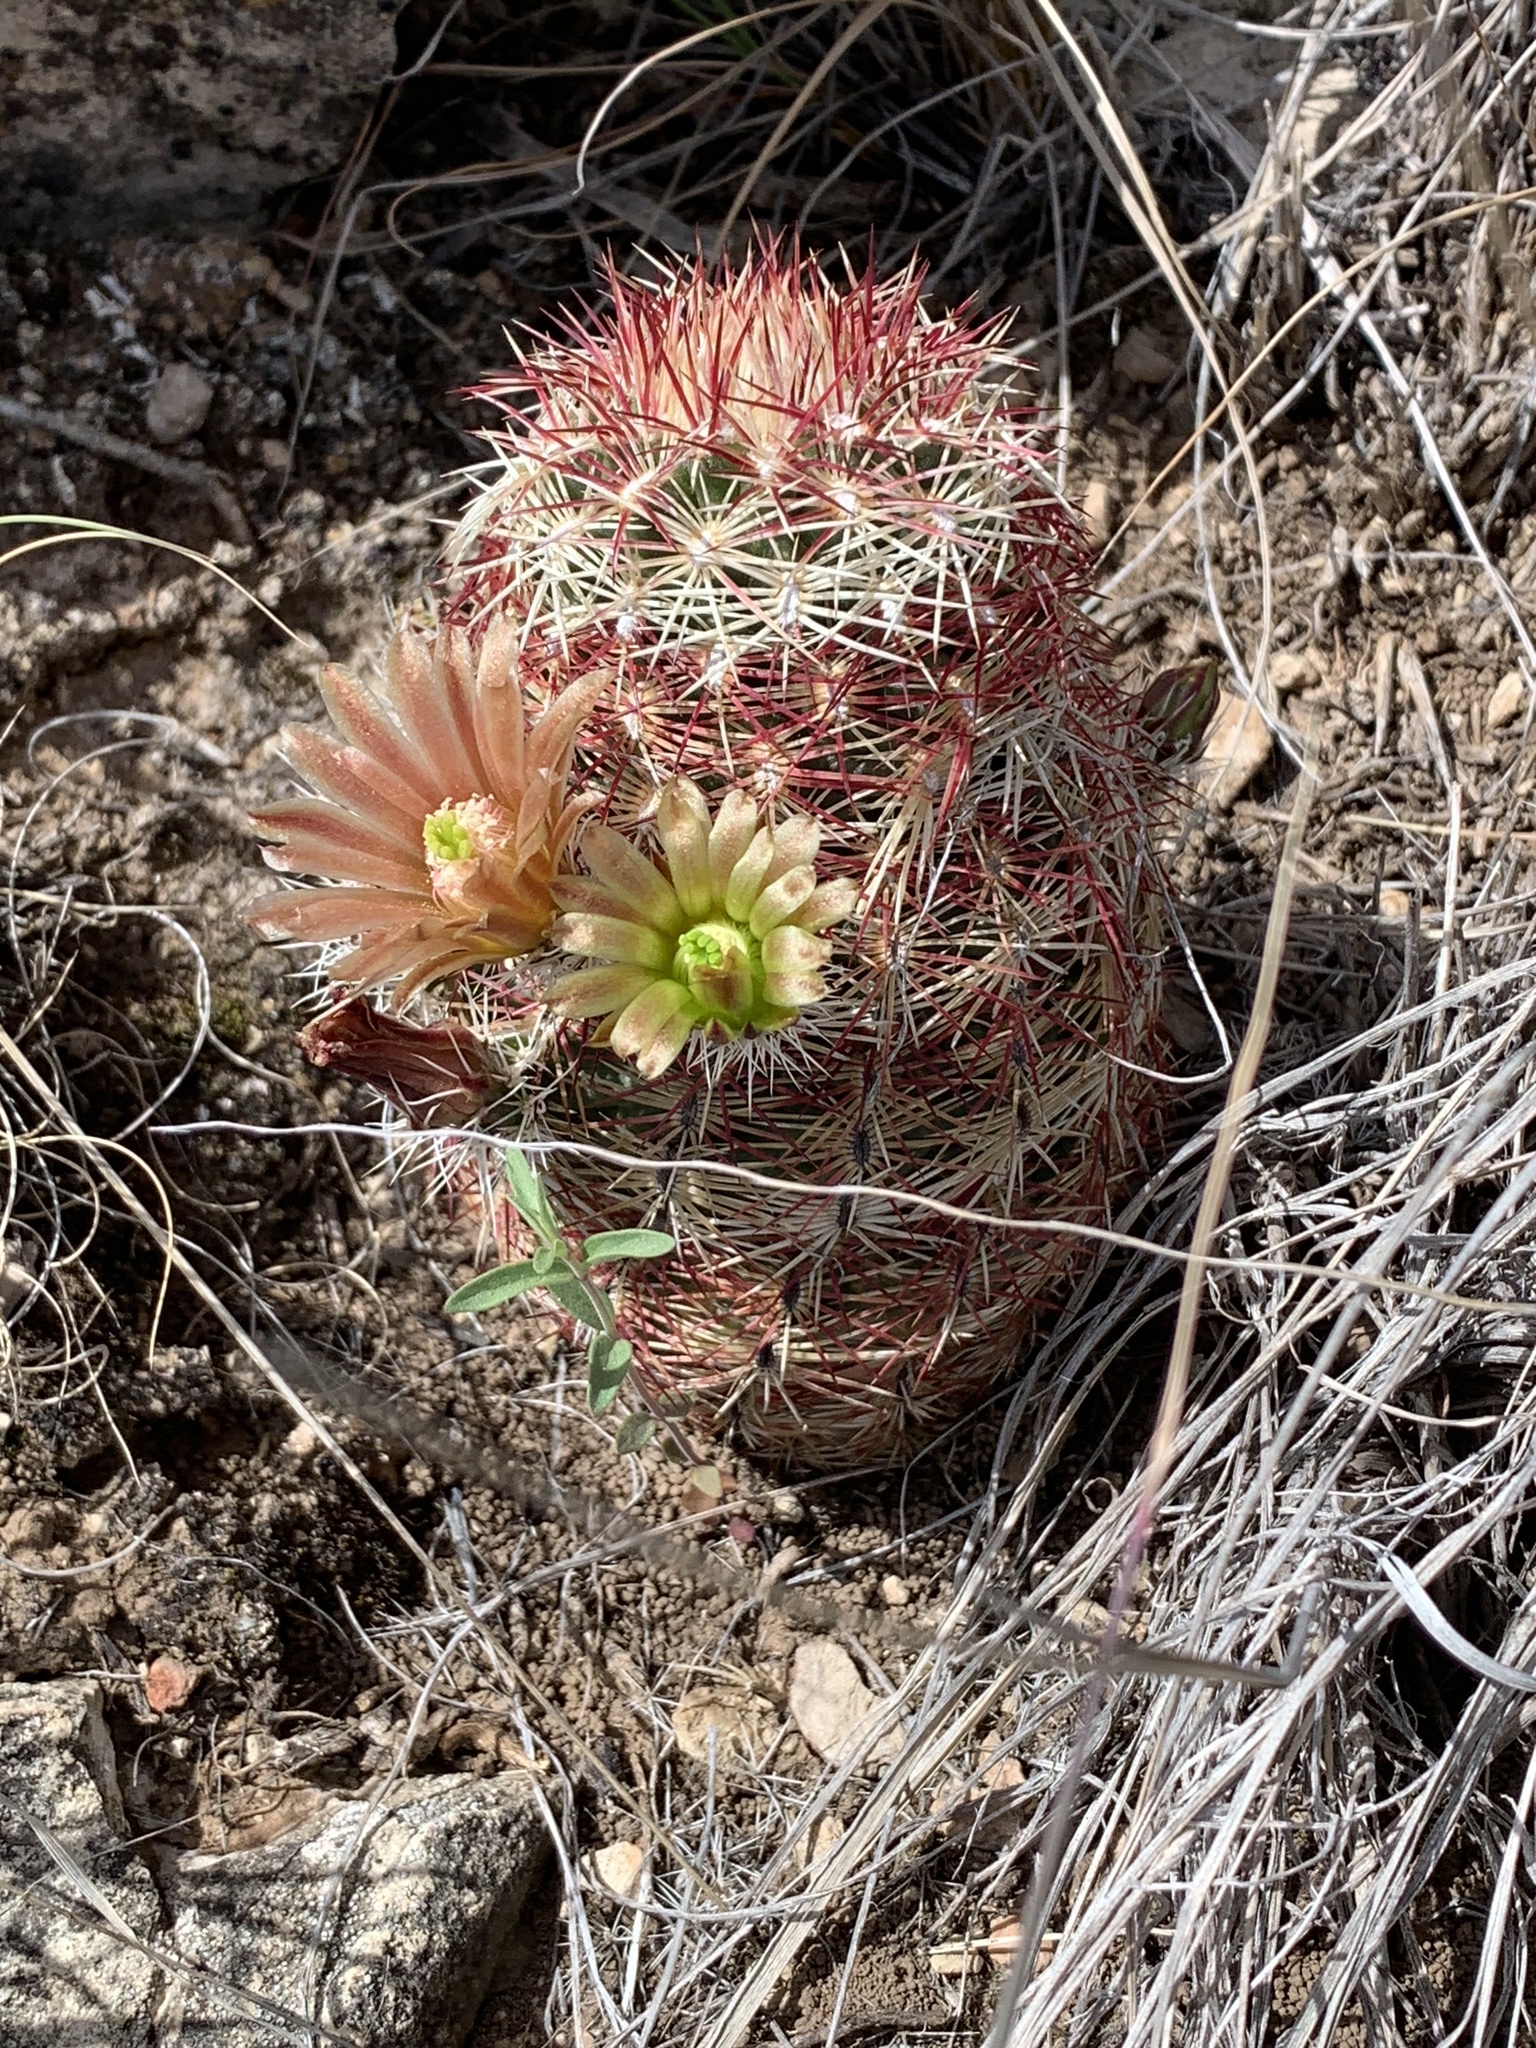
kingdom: Plantae
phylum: Tracheophyta
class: Magnoliopsida
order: Caryophyllales
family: Cactaceae
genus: Echinocereus
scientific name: Echinocereus viridiflorus
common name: Nylon hedgehog cactus
